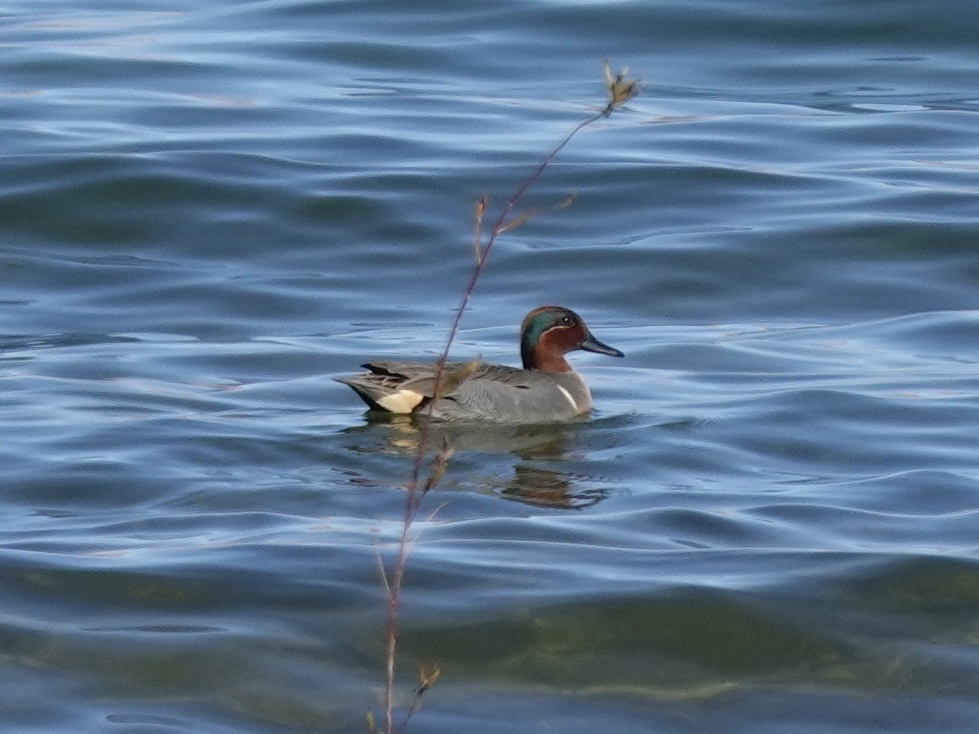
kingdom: Animalia
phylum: Chordata
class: Aves
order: Anseriformes
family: Anatidae
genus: Anas
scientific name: Anas crecca
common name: Eurasian teal
